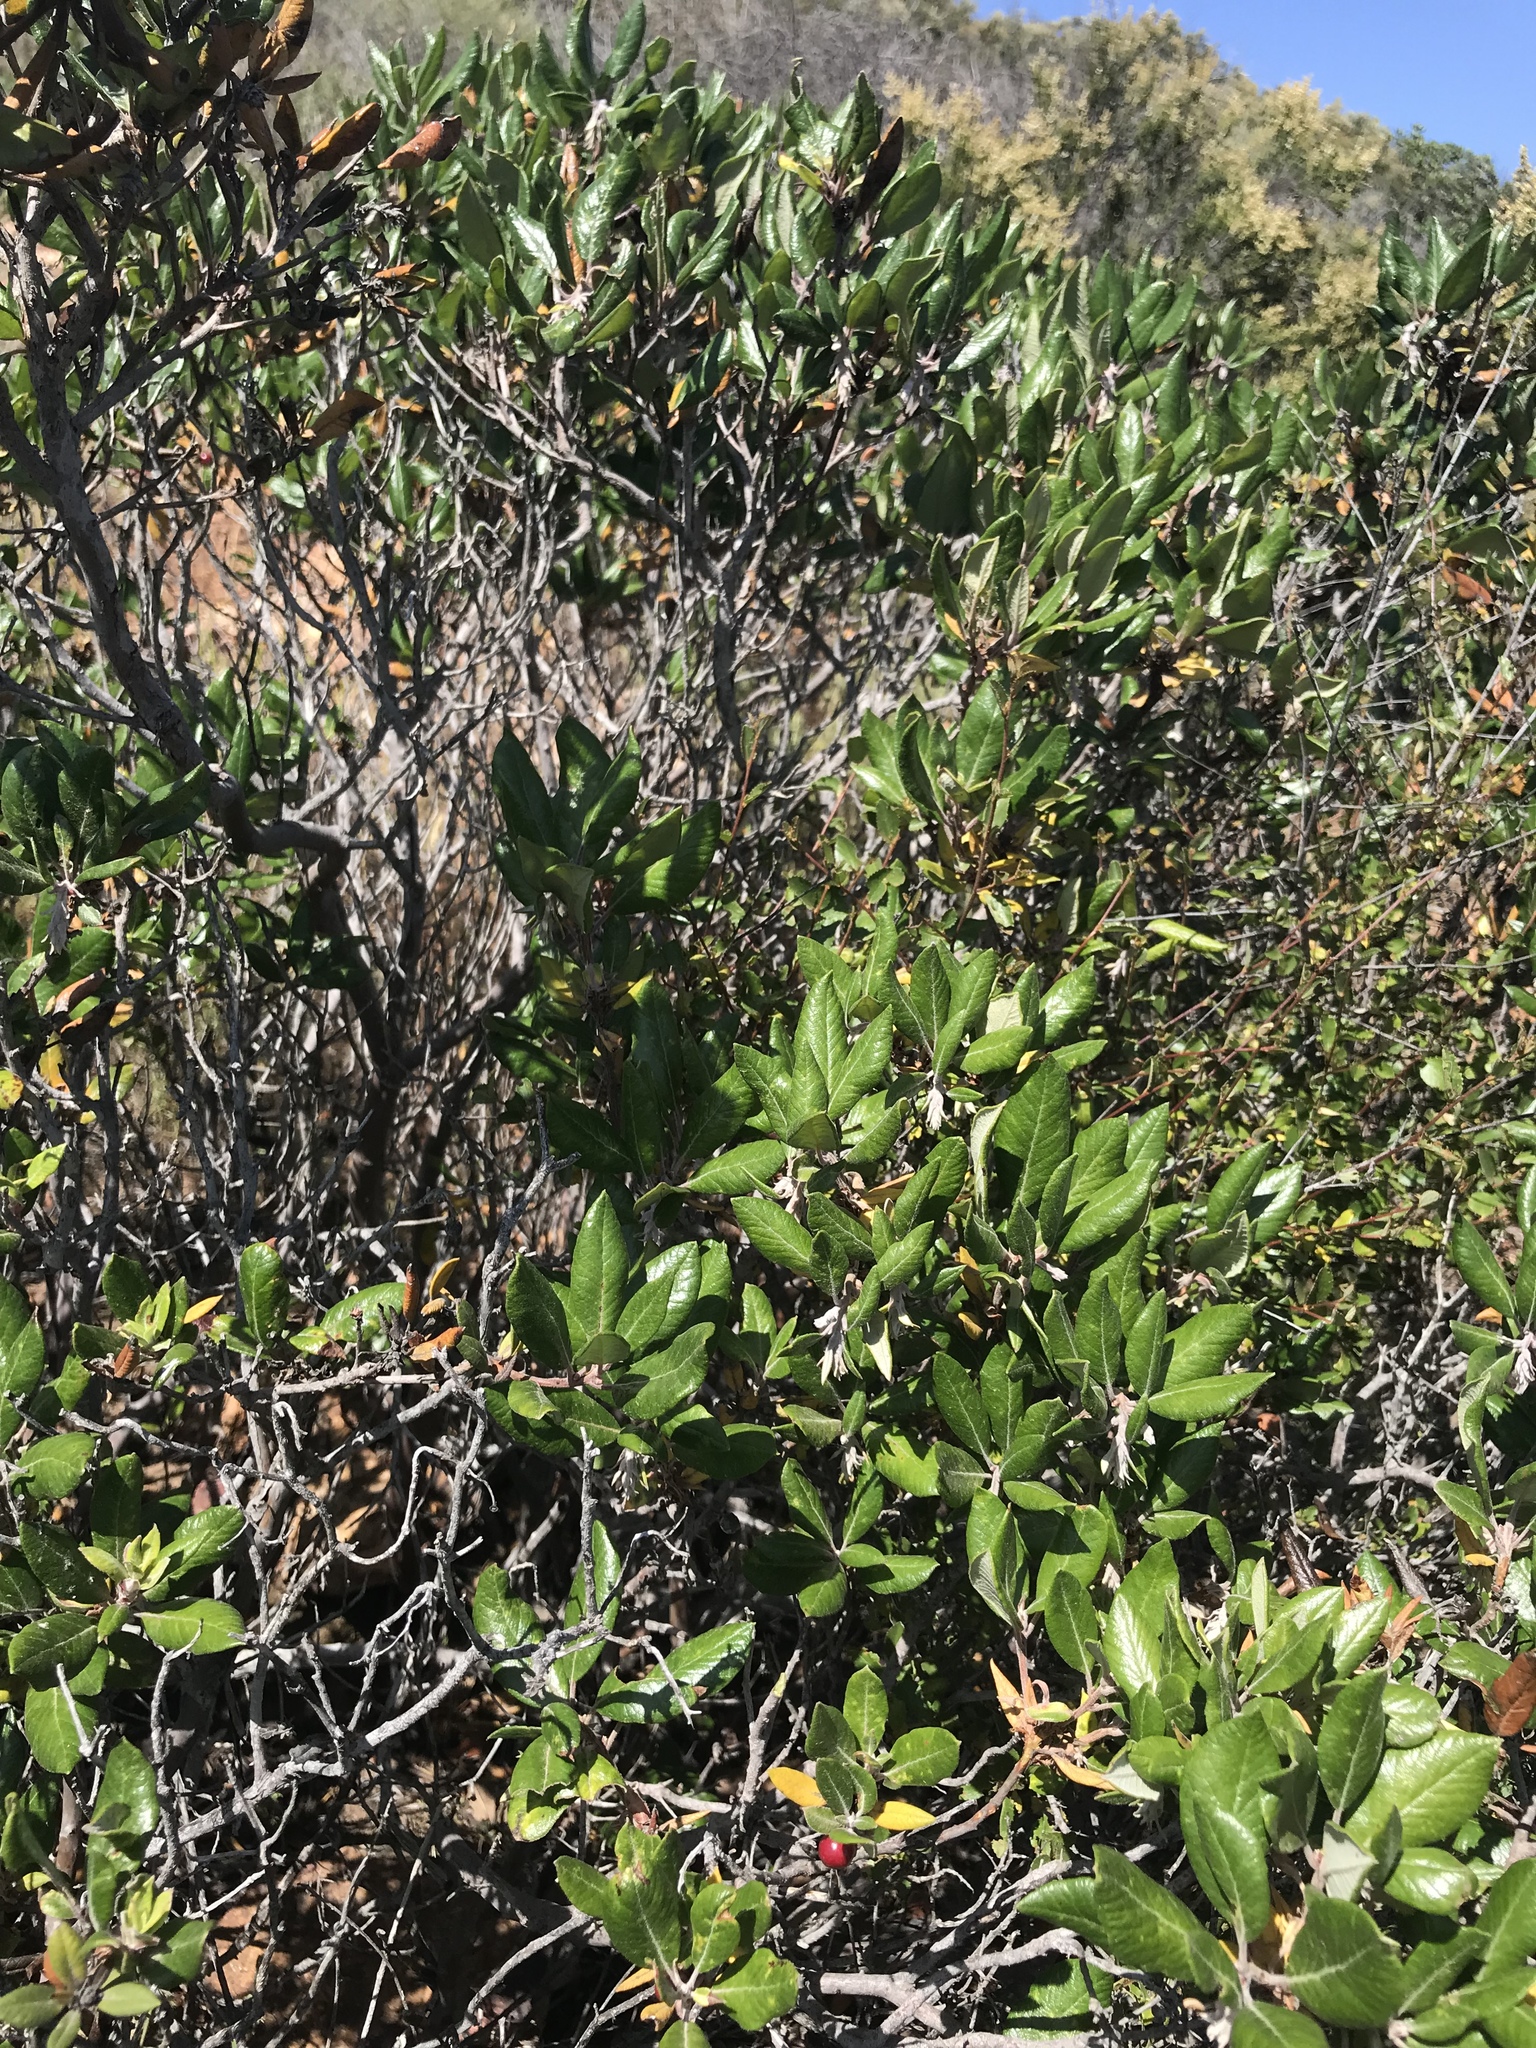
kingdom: Plantae
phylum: Tracheophyta
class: Magnoliopsida
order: Ericales
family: Ericaceae
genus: Arctostaphylos
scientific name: Arctostaphylos bicolor
